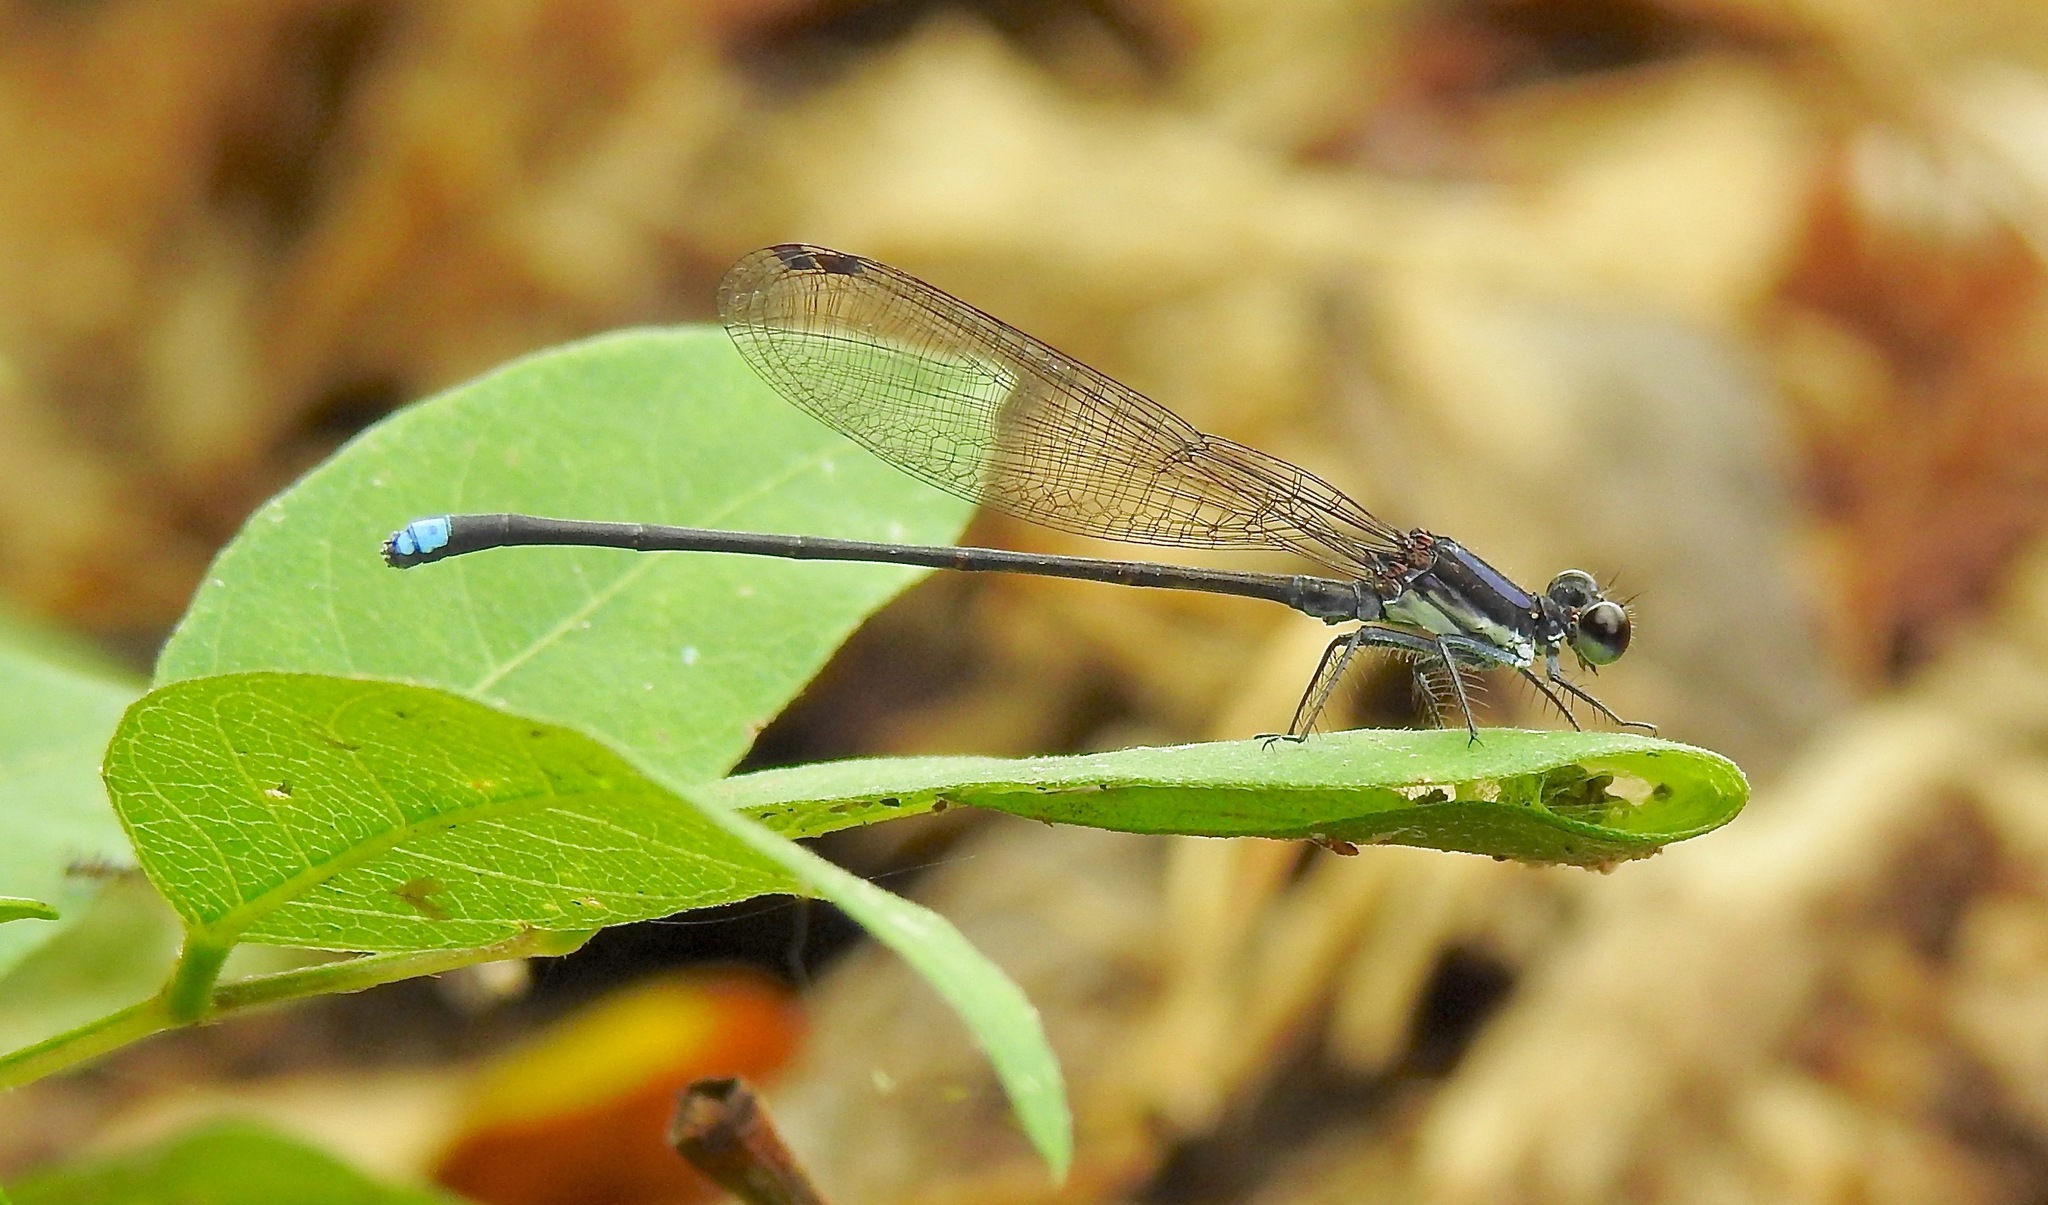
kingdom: Animalia
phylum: Arthropoda
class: Insecta
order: Odonata
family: Coenagrionidae
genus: Argia
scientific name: Argia tibialis
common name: Blue-tipped dancer
